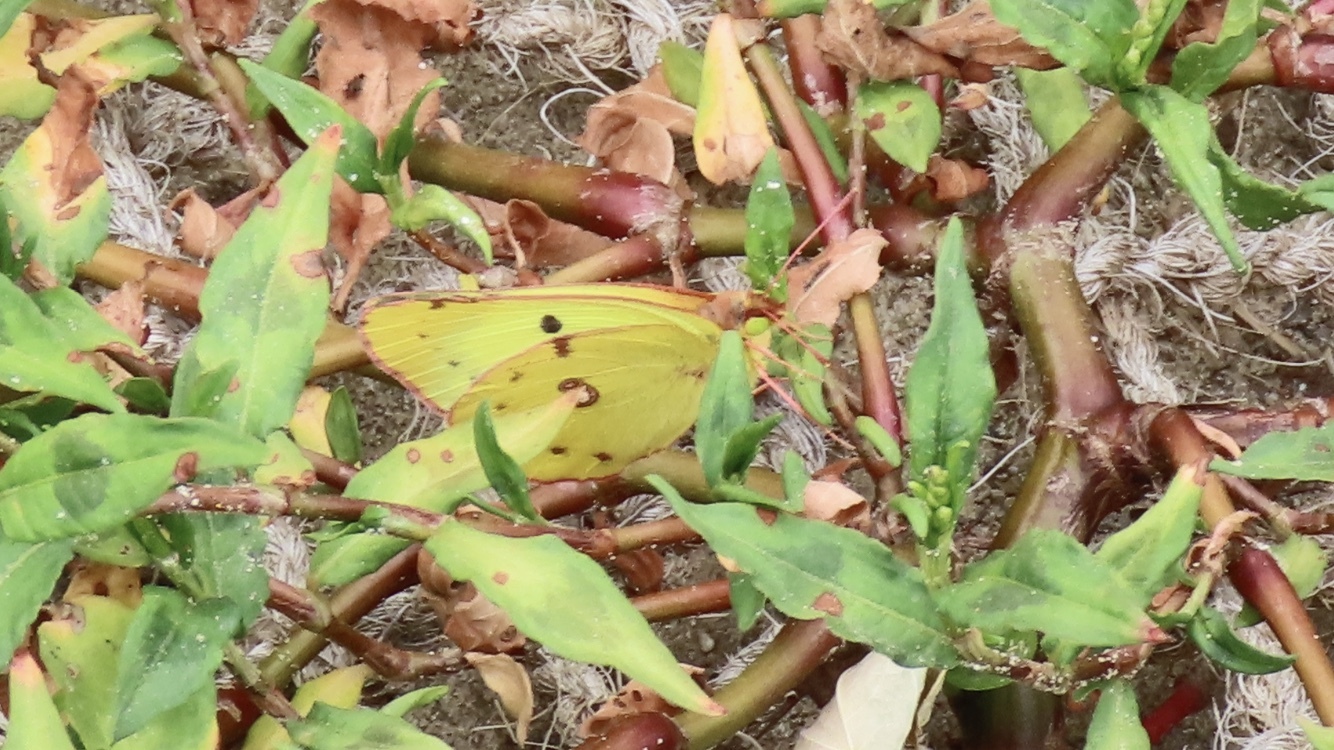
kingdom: Animalia
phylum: Arthropoda
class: Insecta
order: Lepidoptera
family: Pieridae
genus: Colias
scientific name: Colias hyale
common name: Pale clouded yellow
